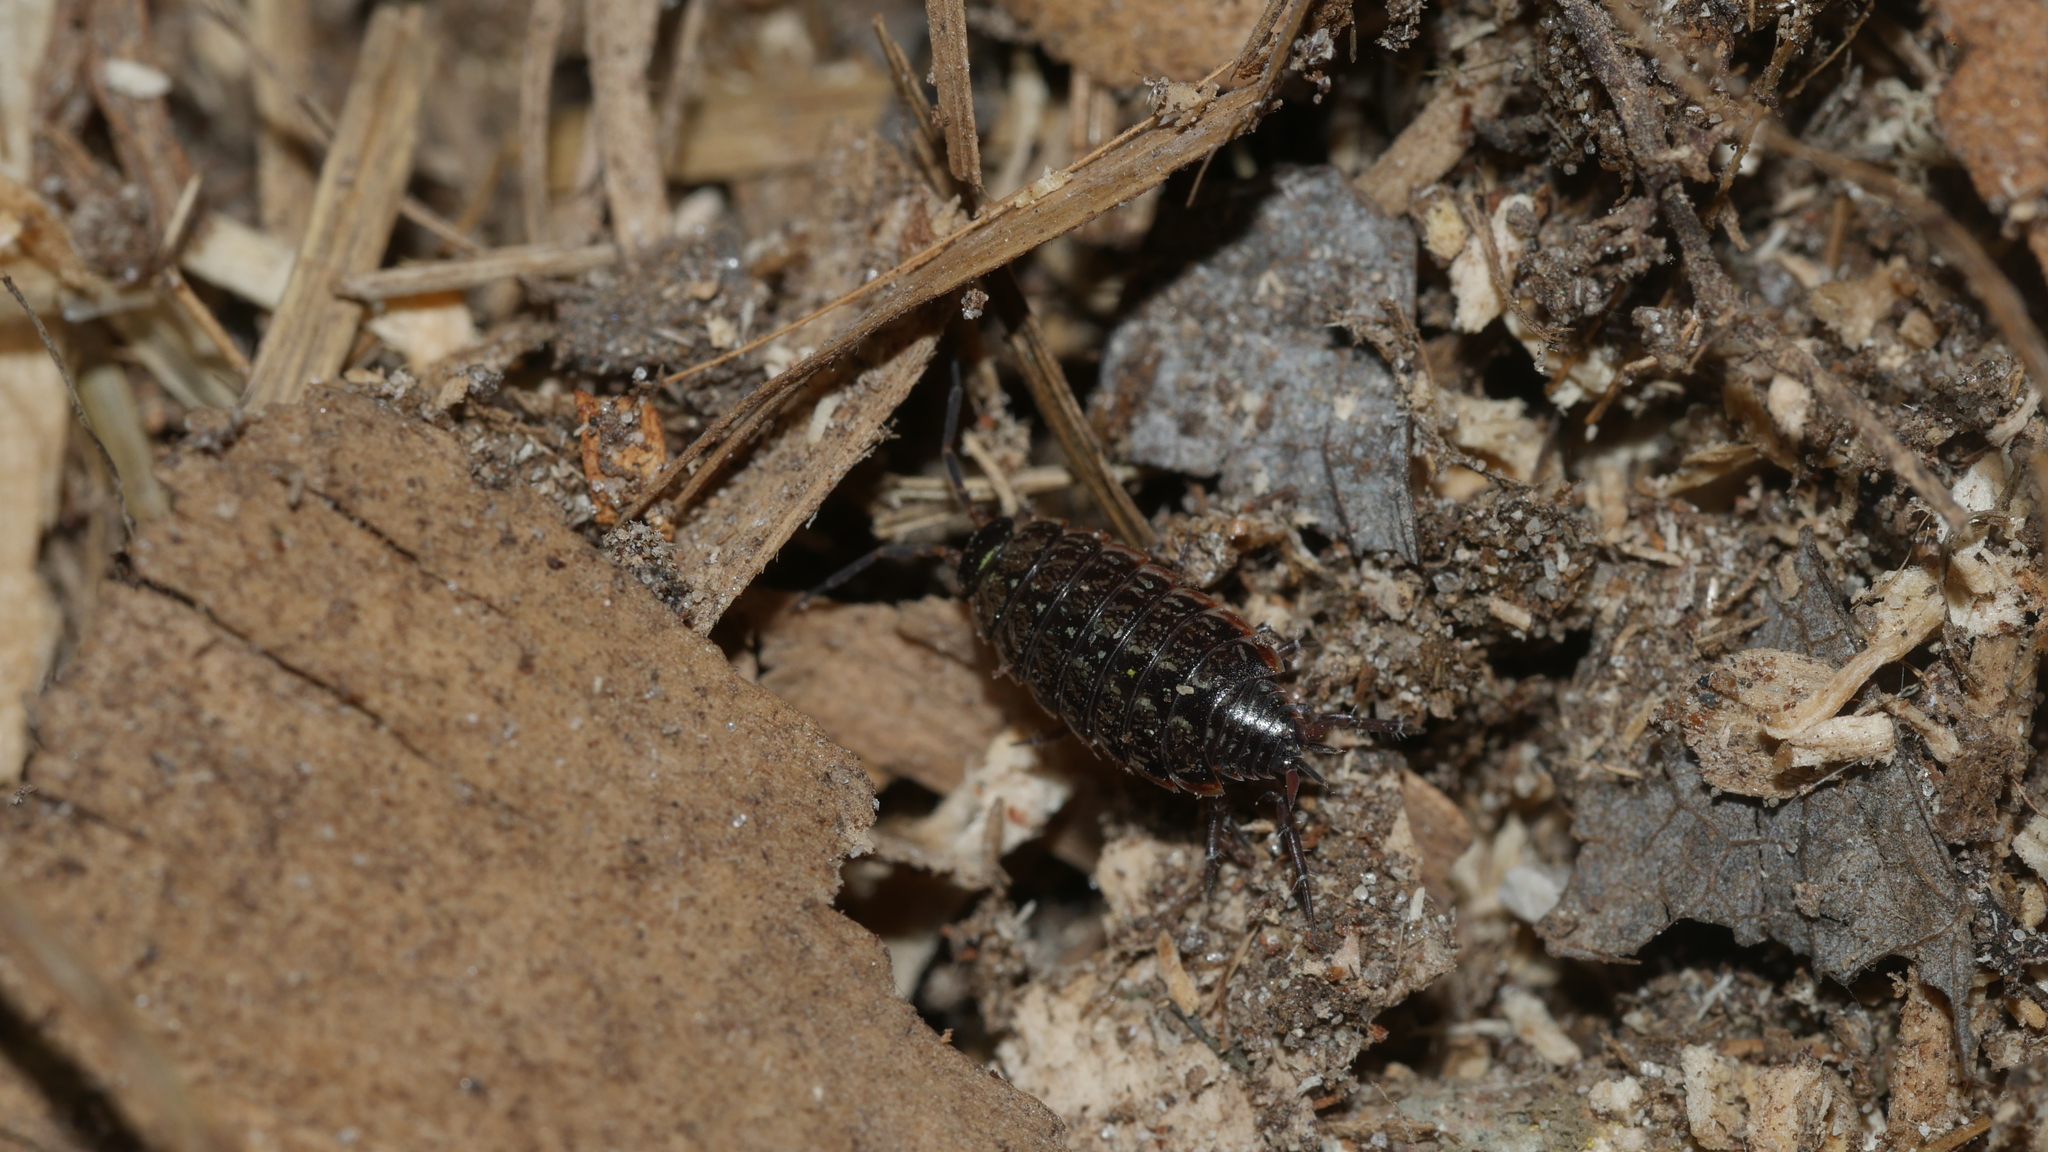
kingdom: Animalia
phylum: Arthropoda
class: Malacostraca
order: Isopoda
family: Philosciidae
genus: Philoscia
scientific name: Philoscia muscorum
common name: Common striped woodlouse
